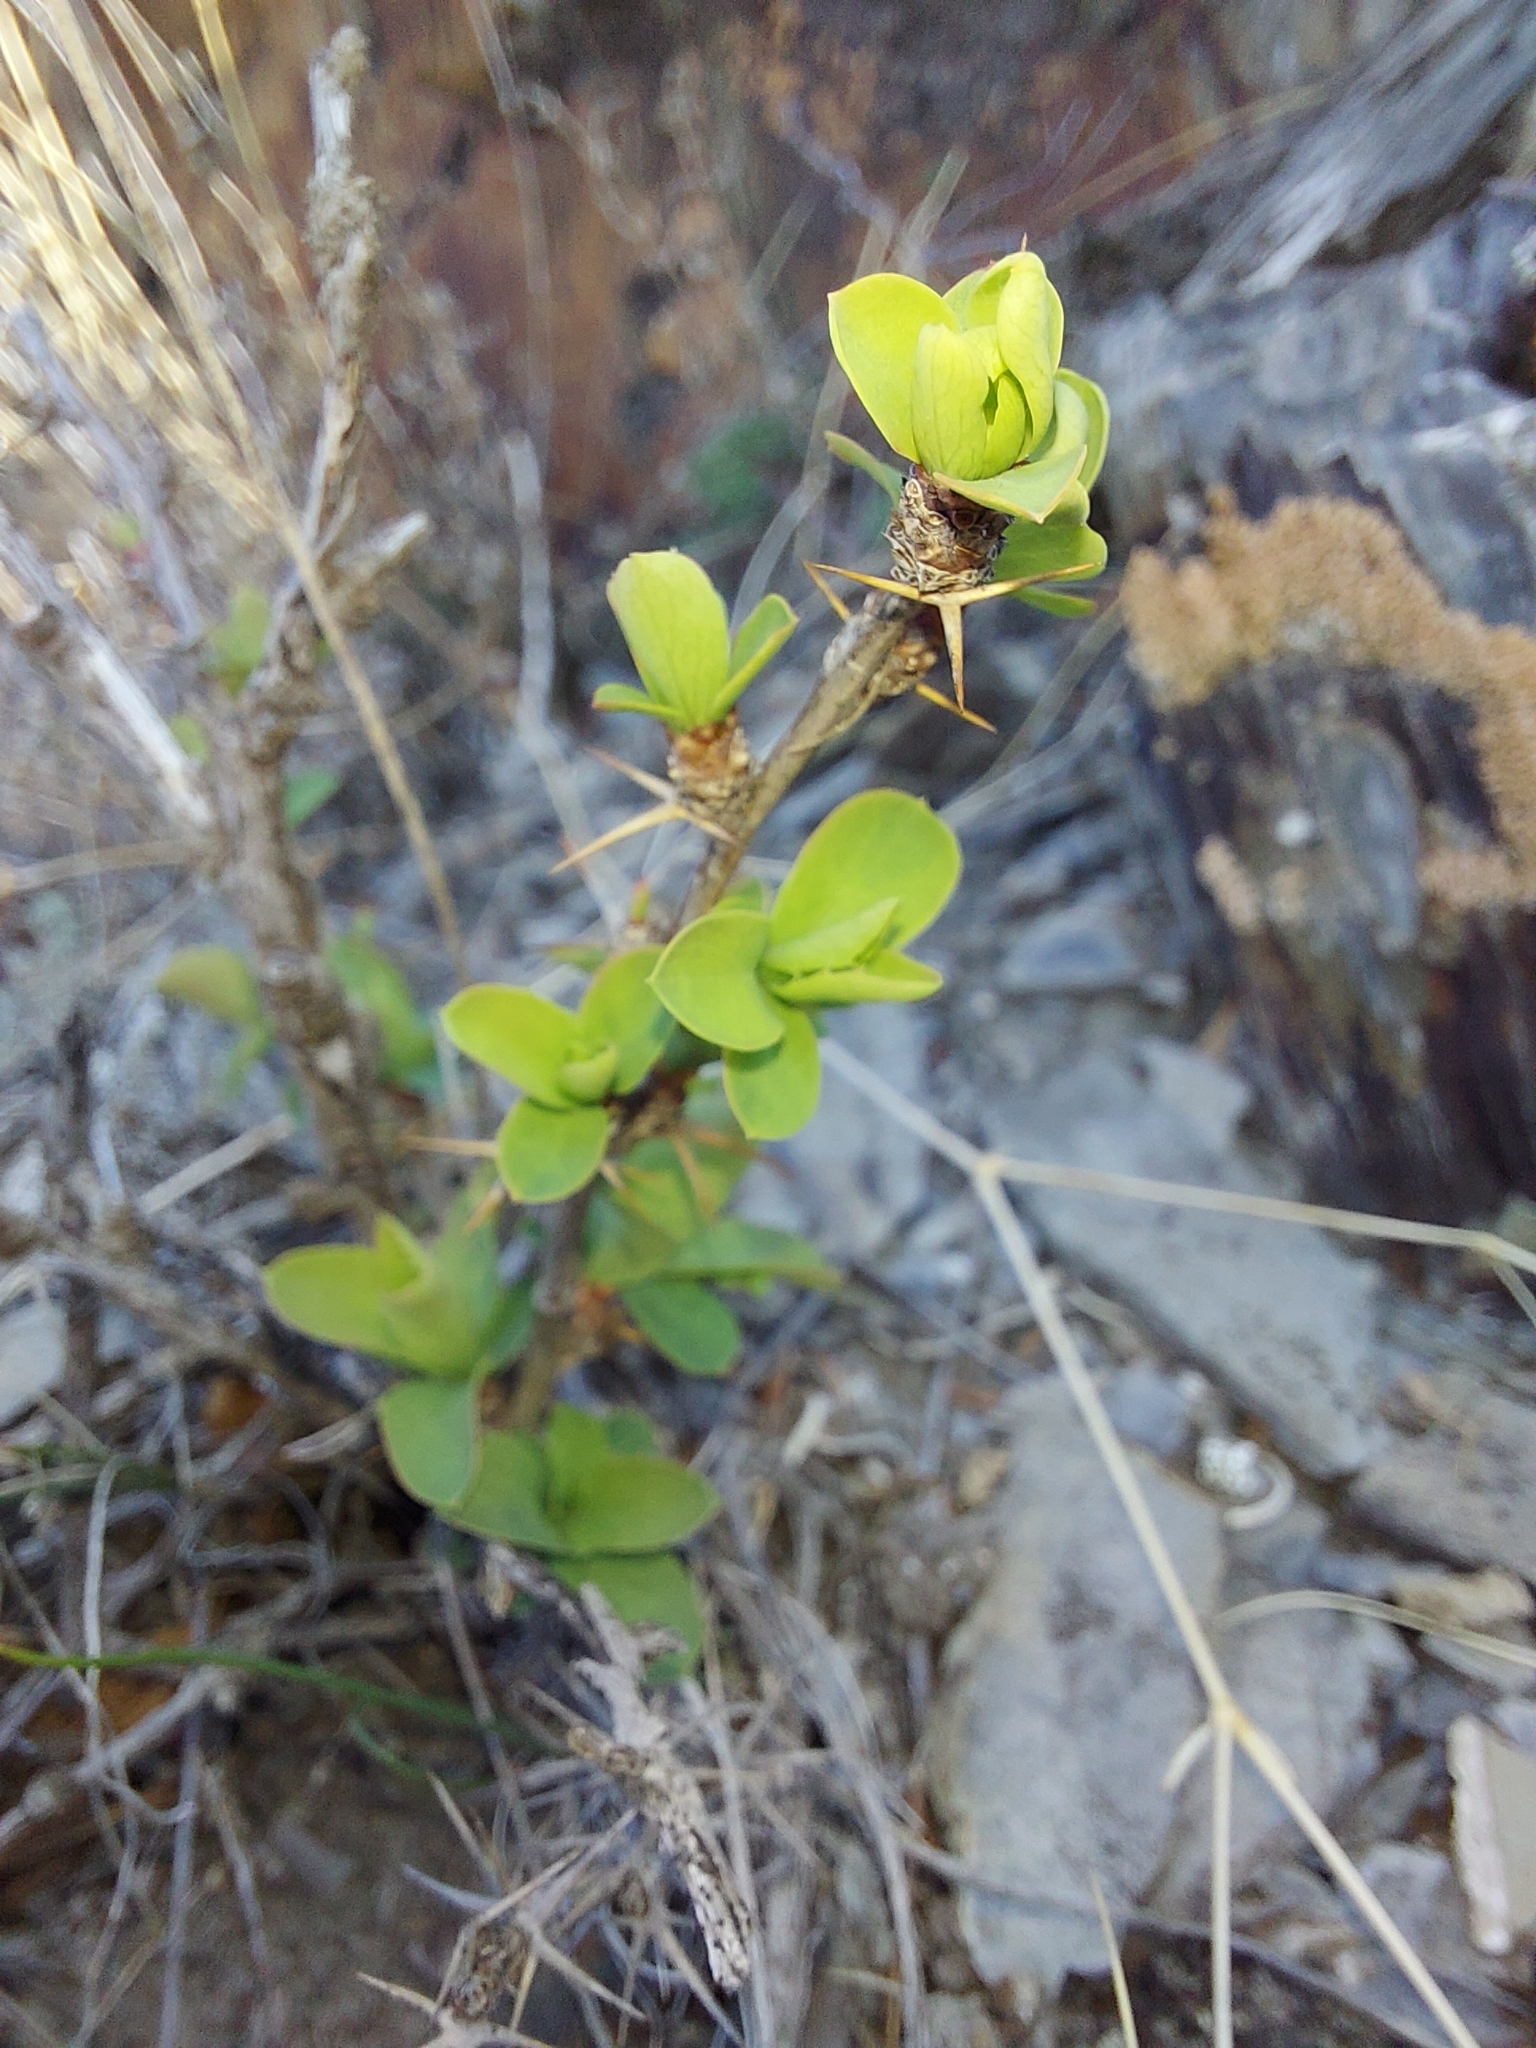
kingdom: Plantae
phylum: Tracheophyta
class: Magnoliopsida
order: Ranunculales
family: Berberidaceae
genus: Berberis
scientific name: Berberis sibirica
